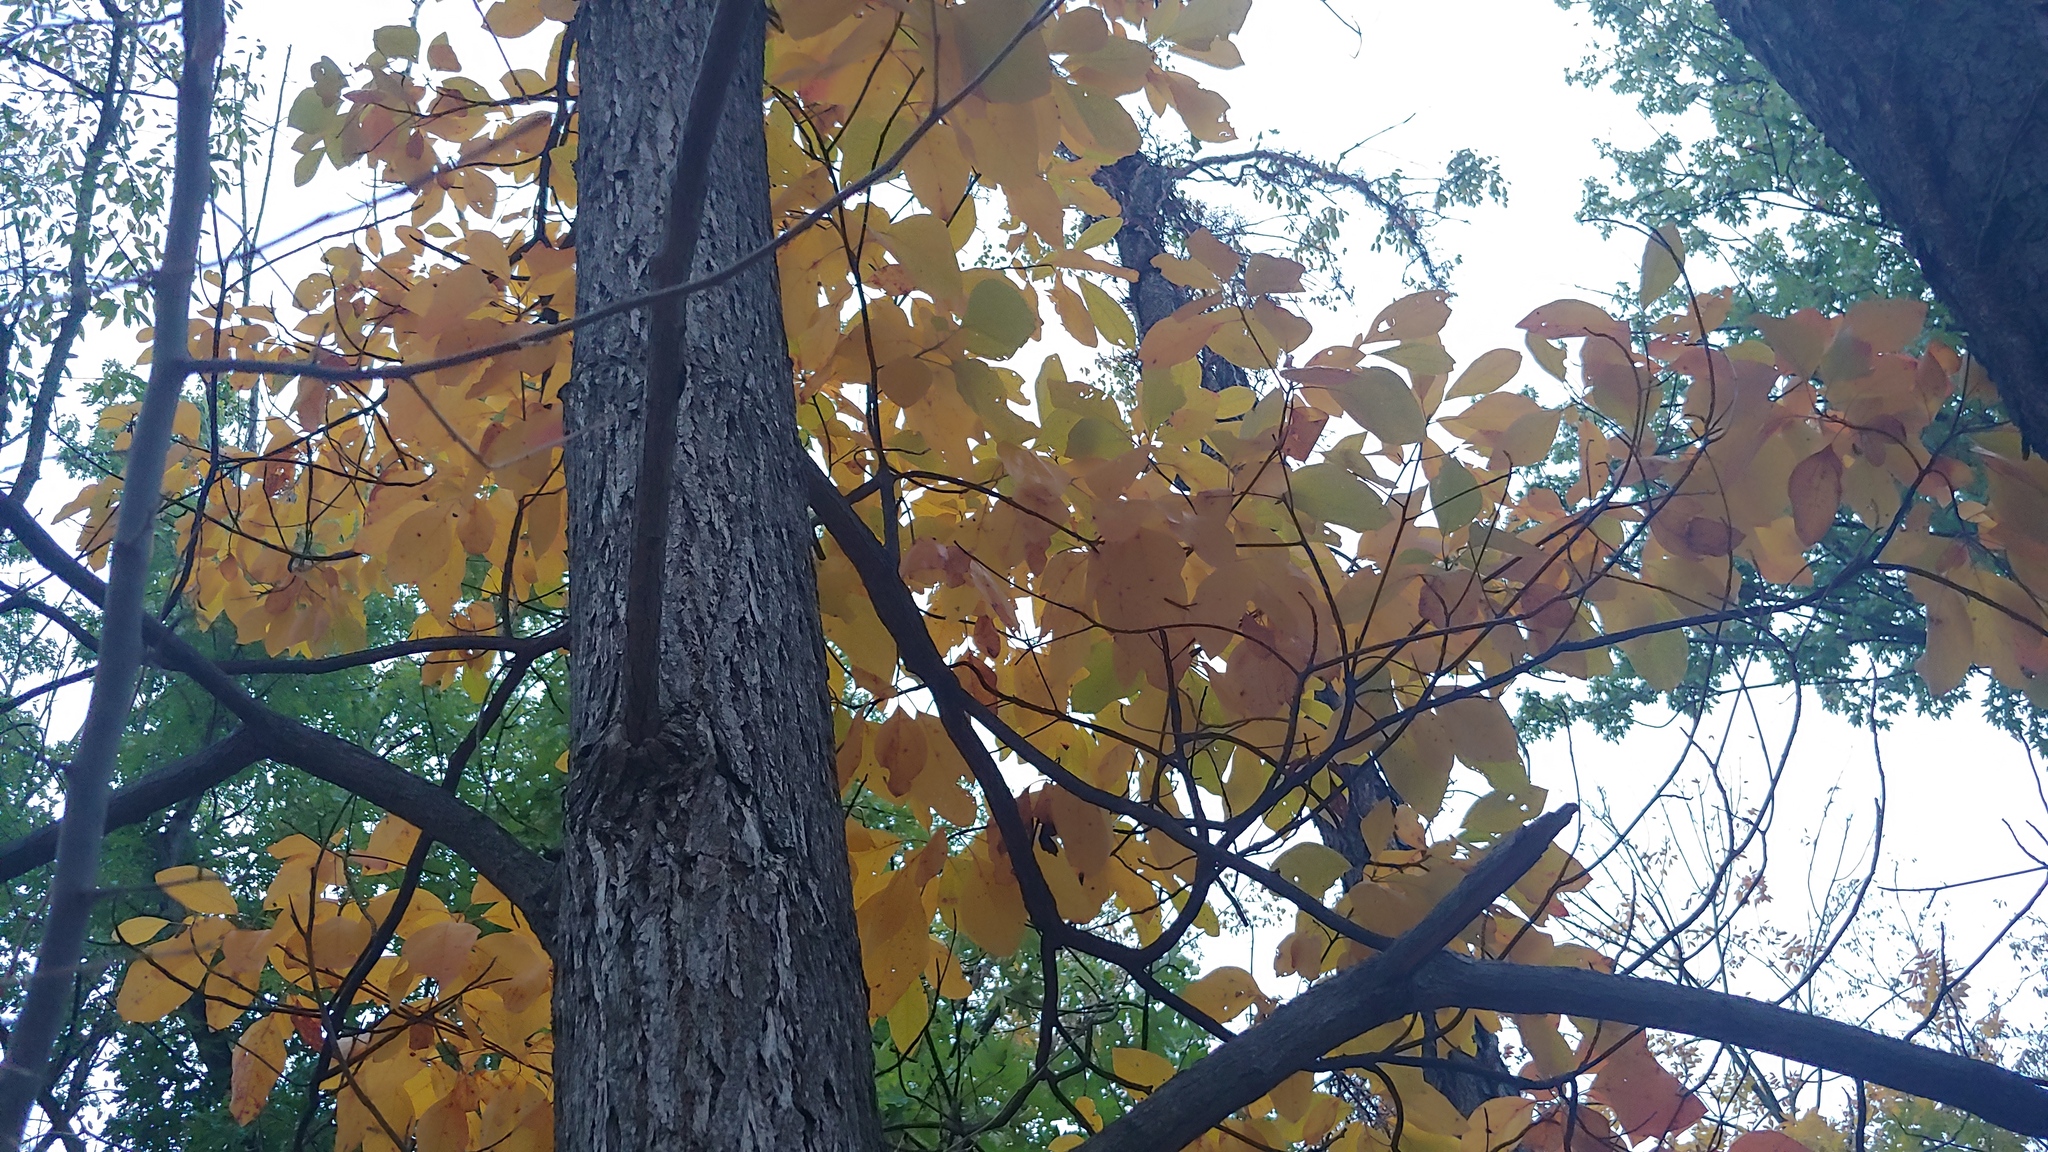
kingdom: Plantae
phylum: Tracheophyta
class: Magnoliopsida
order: Cornales
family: Nyssaceae
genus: Nyssa
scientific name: Nyssa sylvatica
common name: Black tupelo
